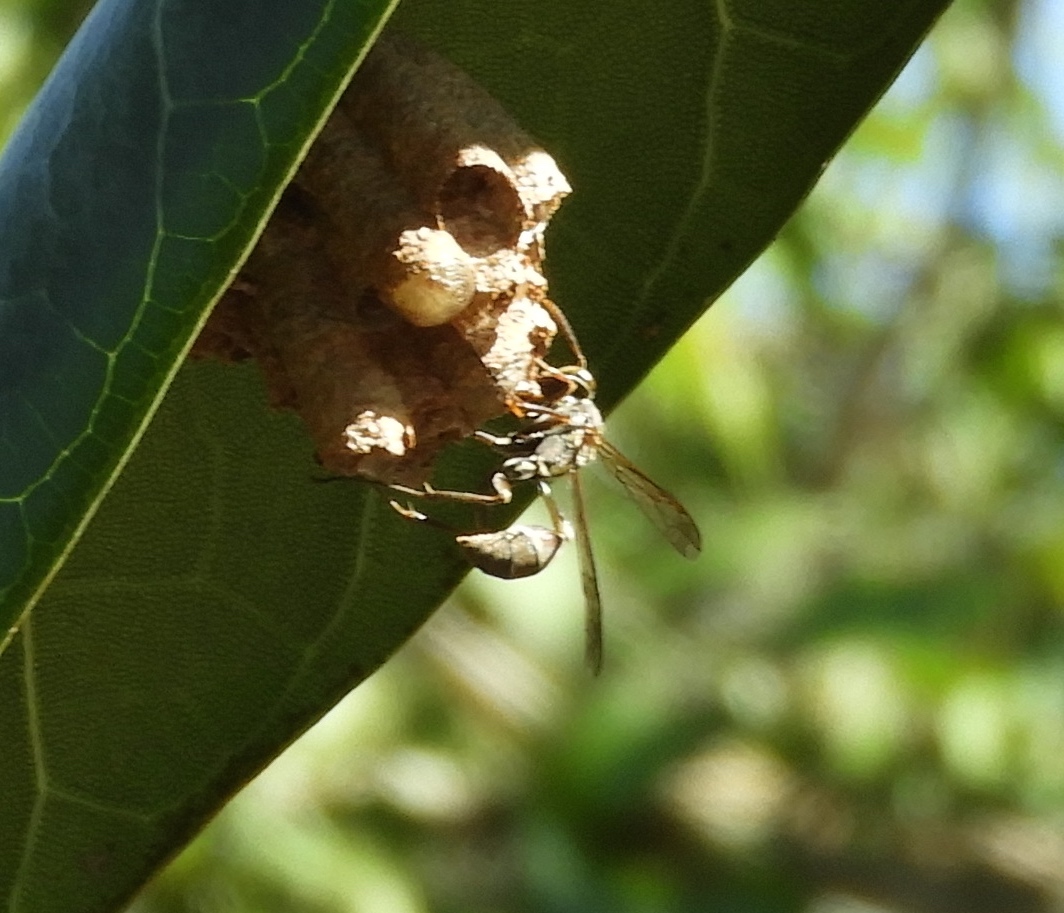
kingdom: Animalia
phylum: Arthropoda
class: Insecta
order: Hymenoptera
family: Vespidae
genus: Mischocyttarus
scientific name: Mischocyttarus mexicanus
